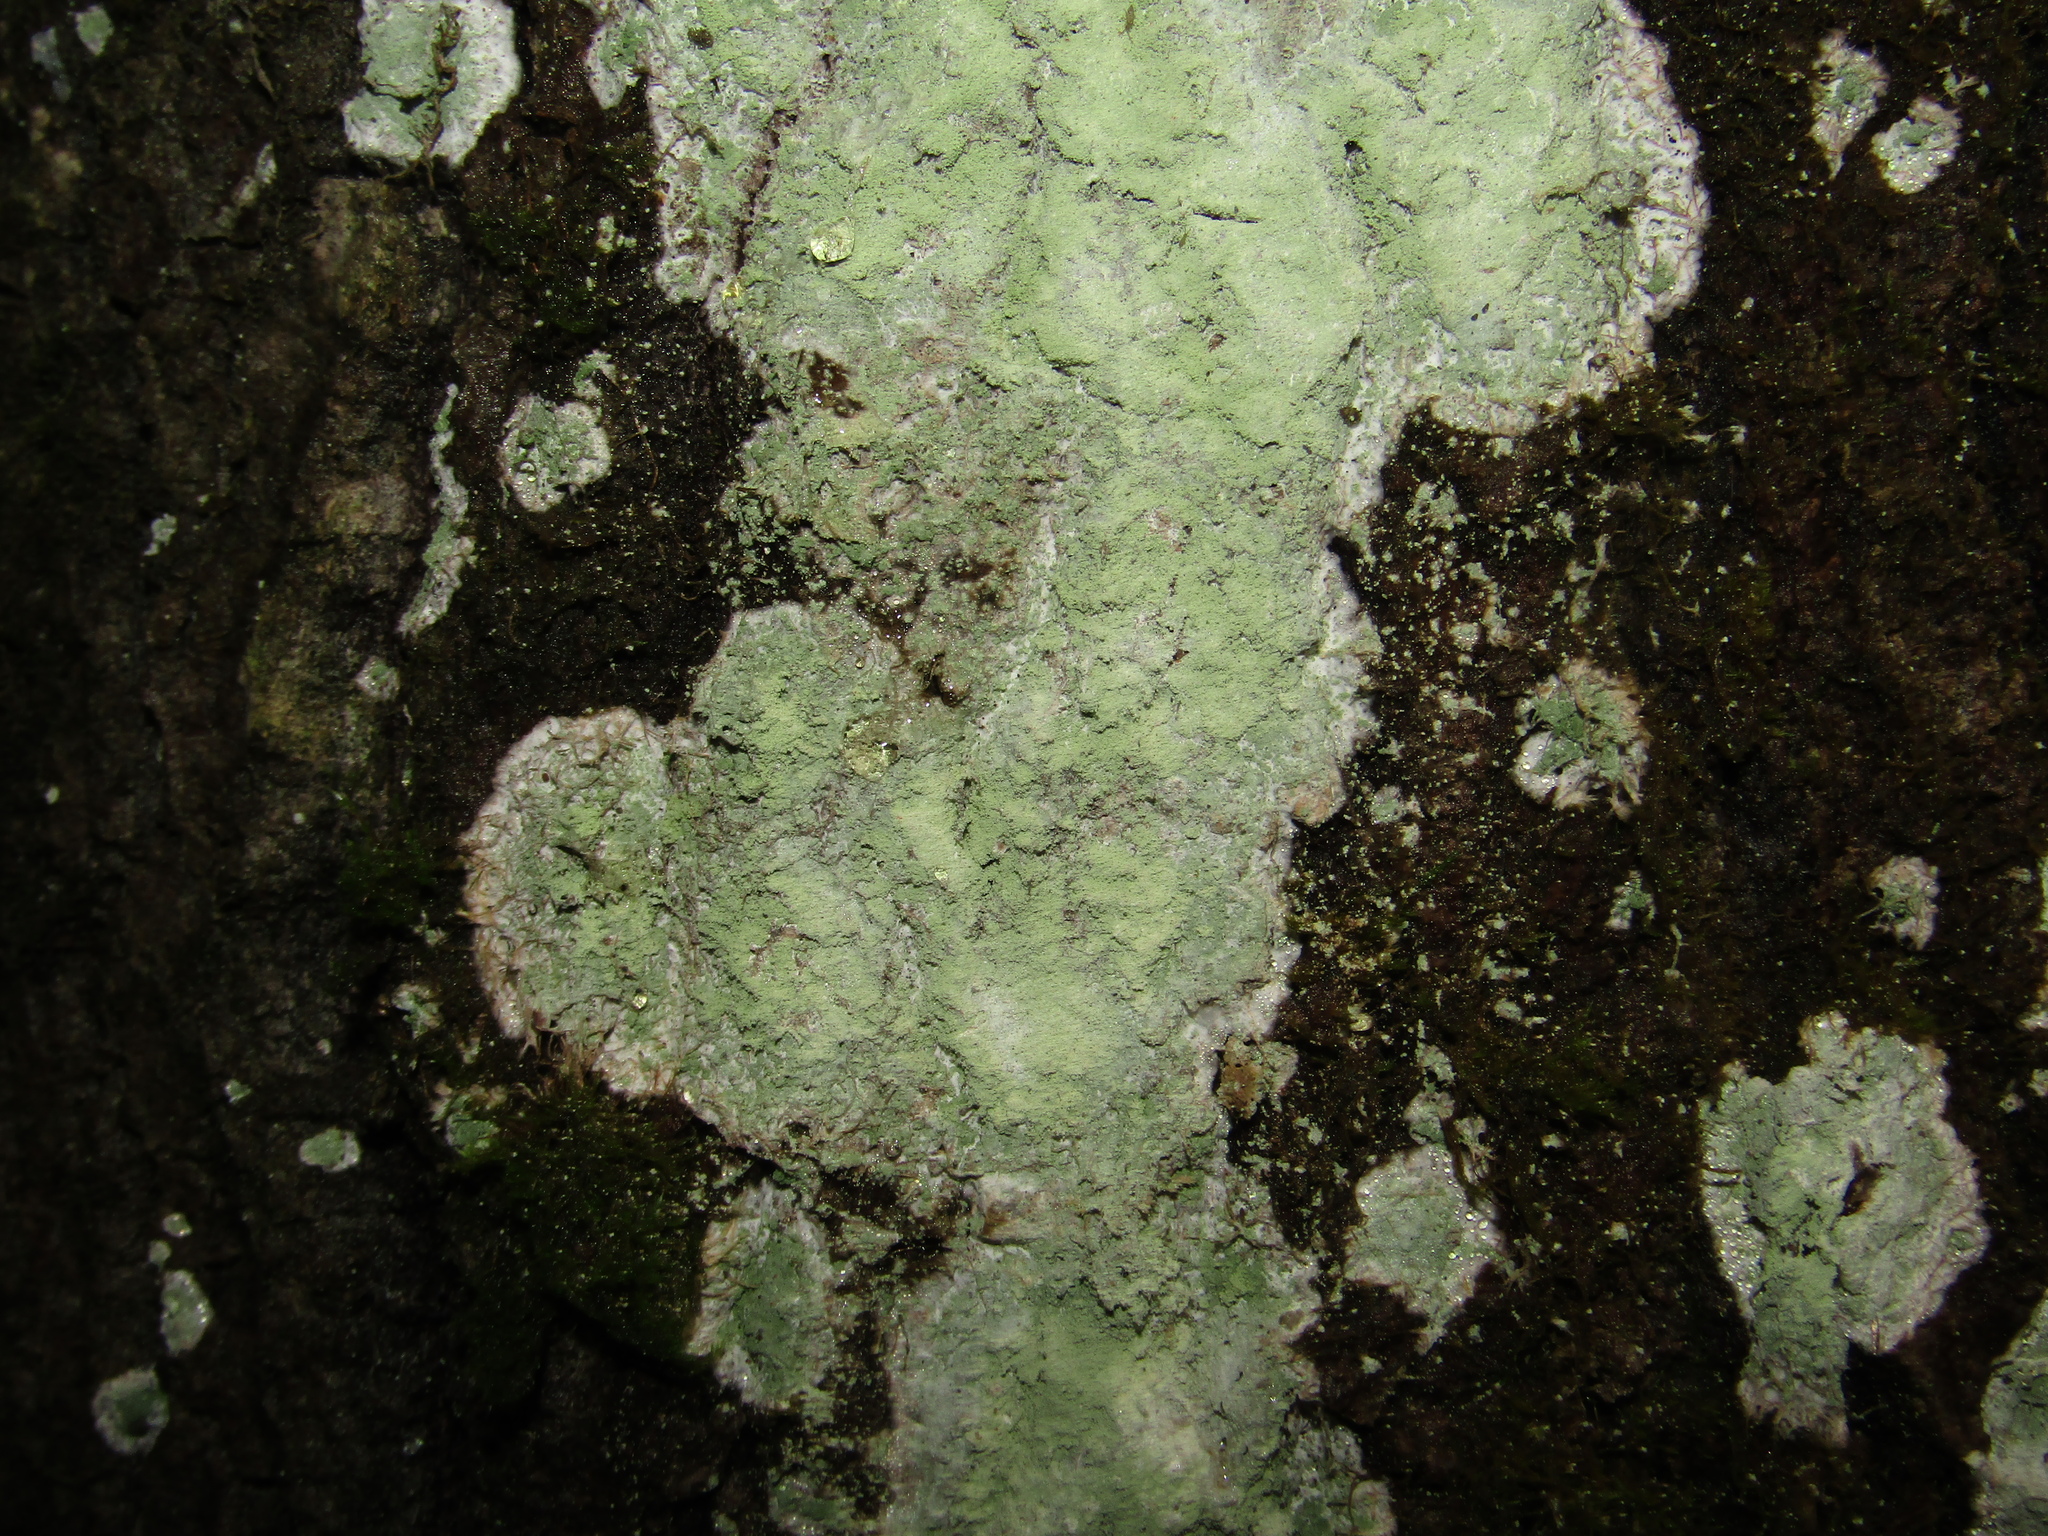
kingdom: Fungi
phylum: Ascomycota
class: Lecanoromycetes
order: Ostropales
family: Phlyctidaceae
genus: Phlyctis
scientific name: Phlyctis argena
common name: Whitewash lichen
